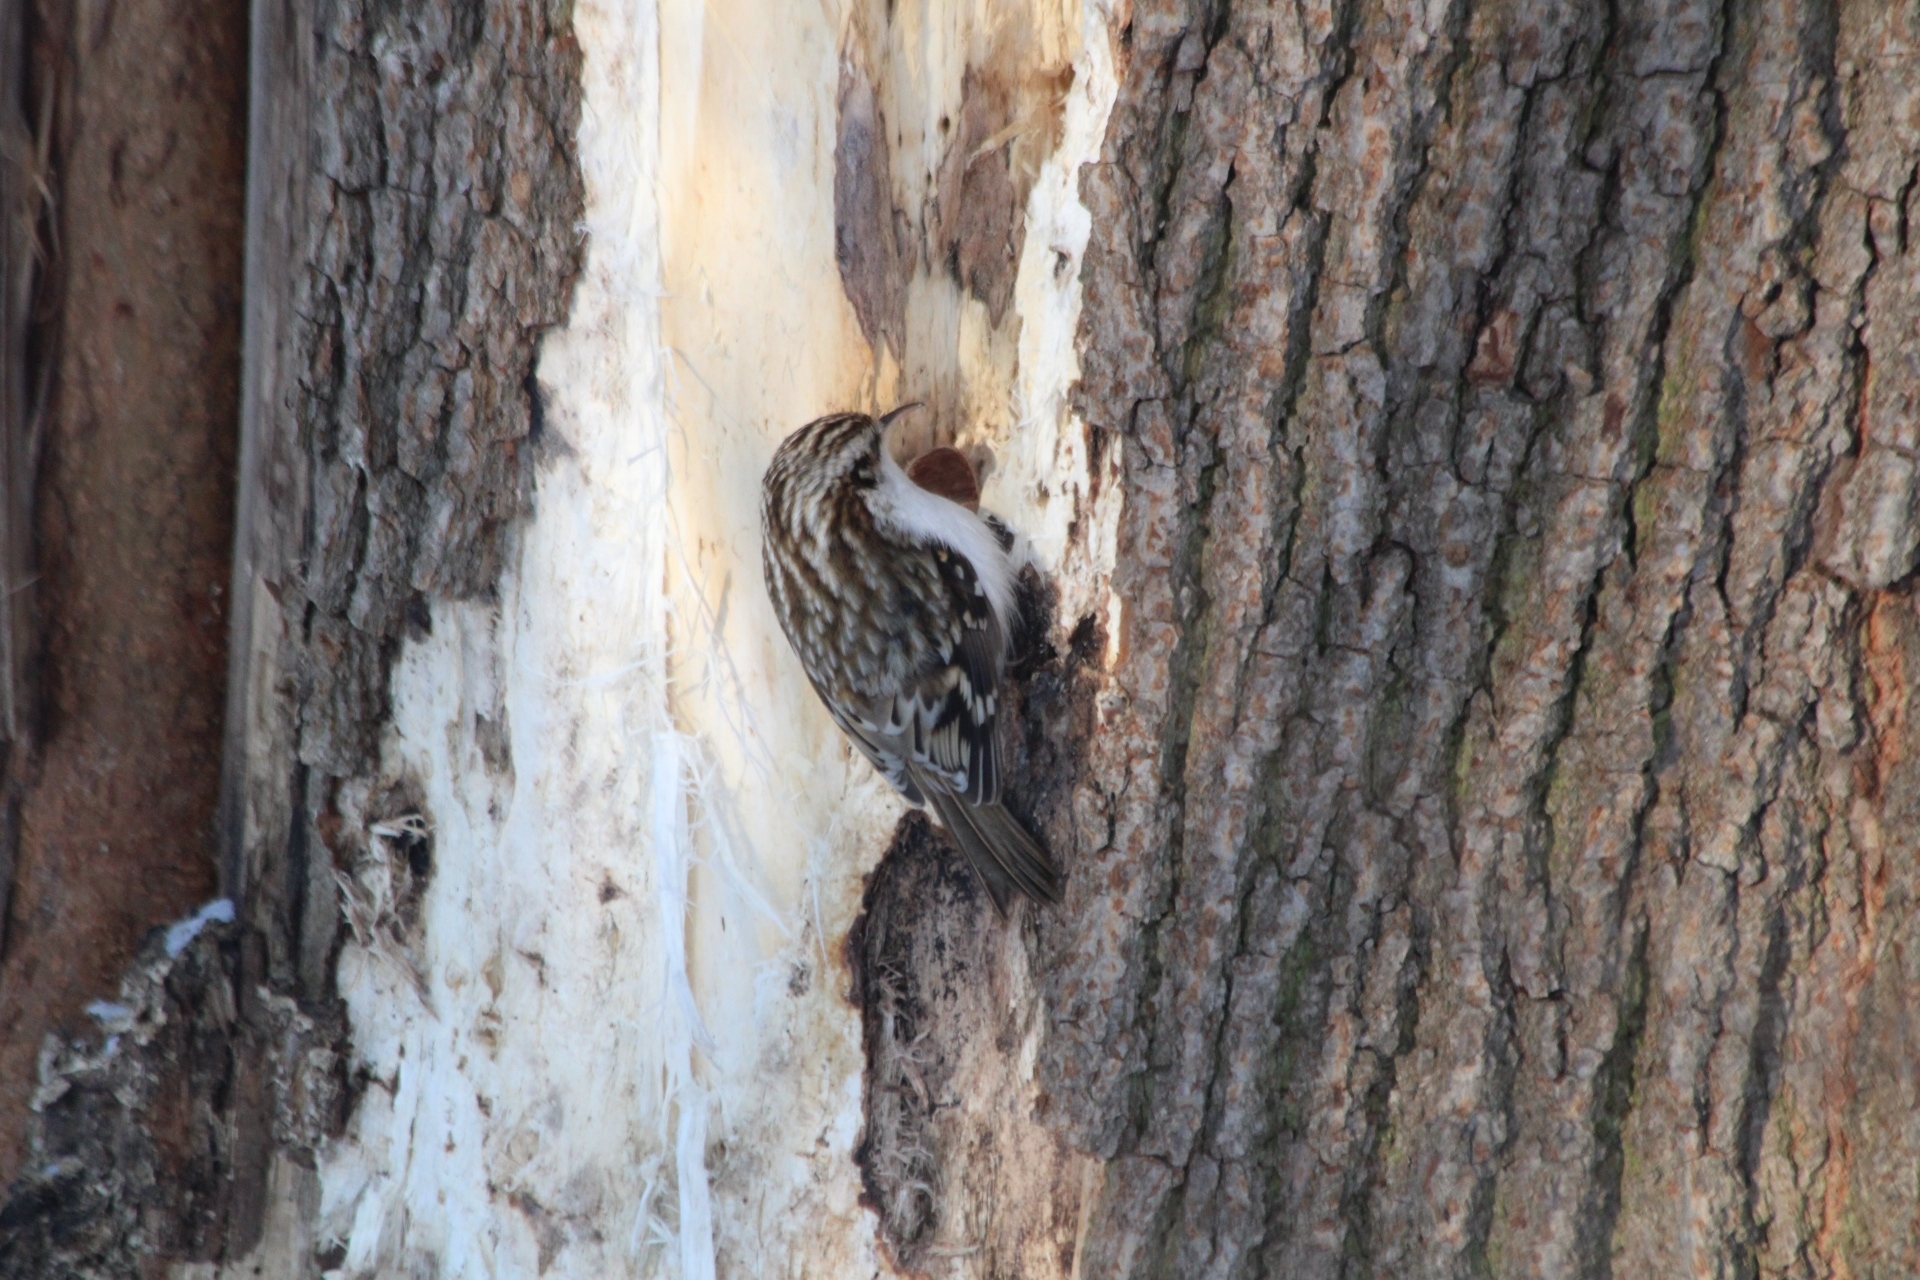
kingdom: Animalia
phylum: Chordata
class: Aves
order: Passeriformes
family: Certhiidae
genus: Certhia
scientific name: Certhia familiaris
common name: Eurasian treecreeper
